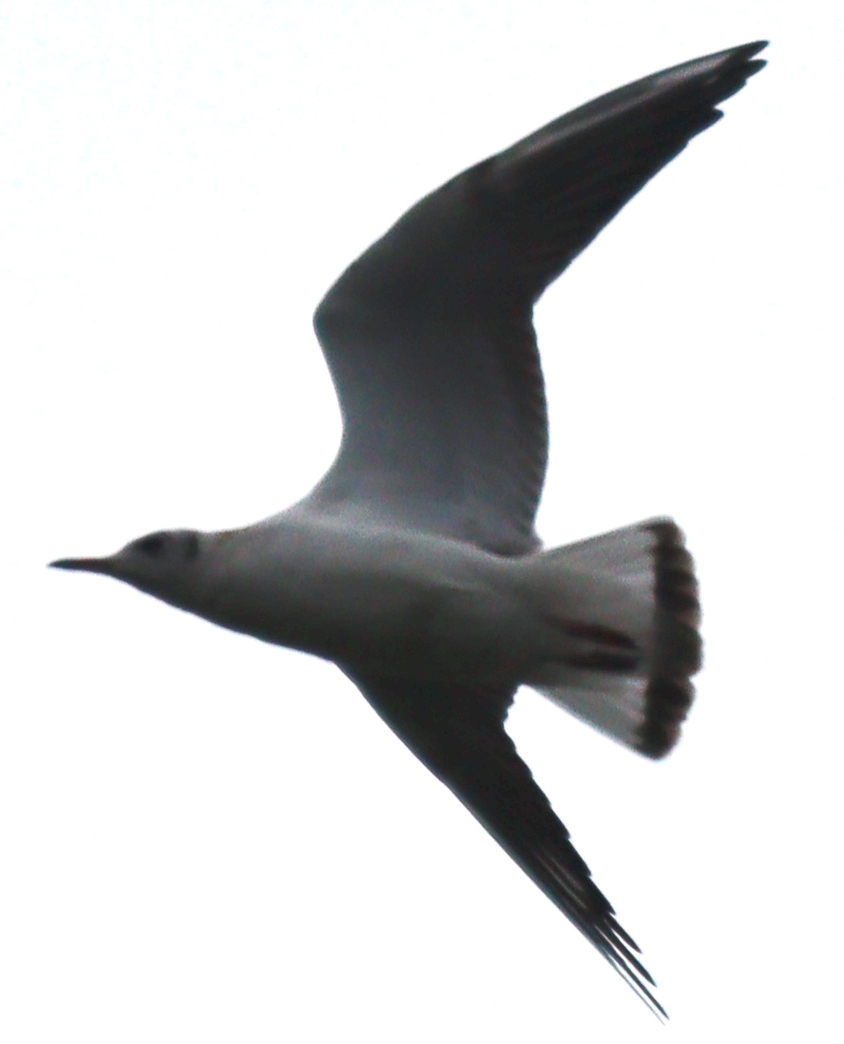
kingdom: Animalia
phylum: Chordata
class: Aves
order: Charadriiformes
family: Laridae
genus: Chroicocephalus
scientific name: Chroicocephalus ridibundus
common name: Black-headed gull
